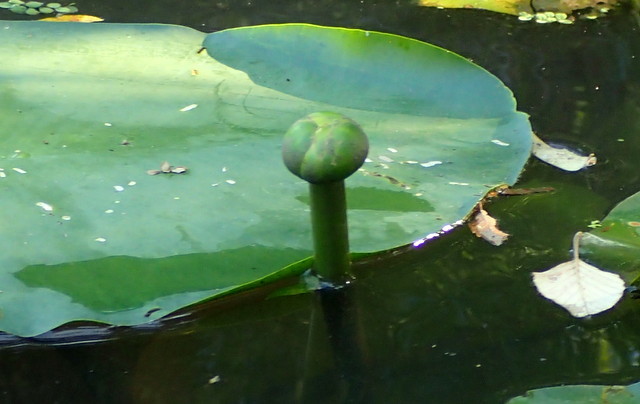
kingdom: Plantae
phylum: Tracheophyta
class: Magnoliopsida
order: Nymphaeales
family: Nymphaeaceae
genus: Nuphar
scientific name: Nuphar advena
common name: Spatter-dock
